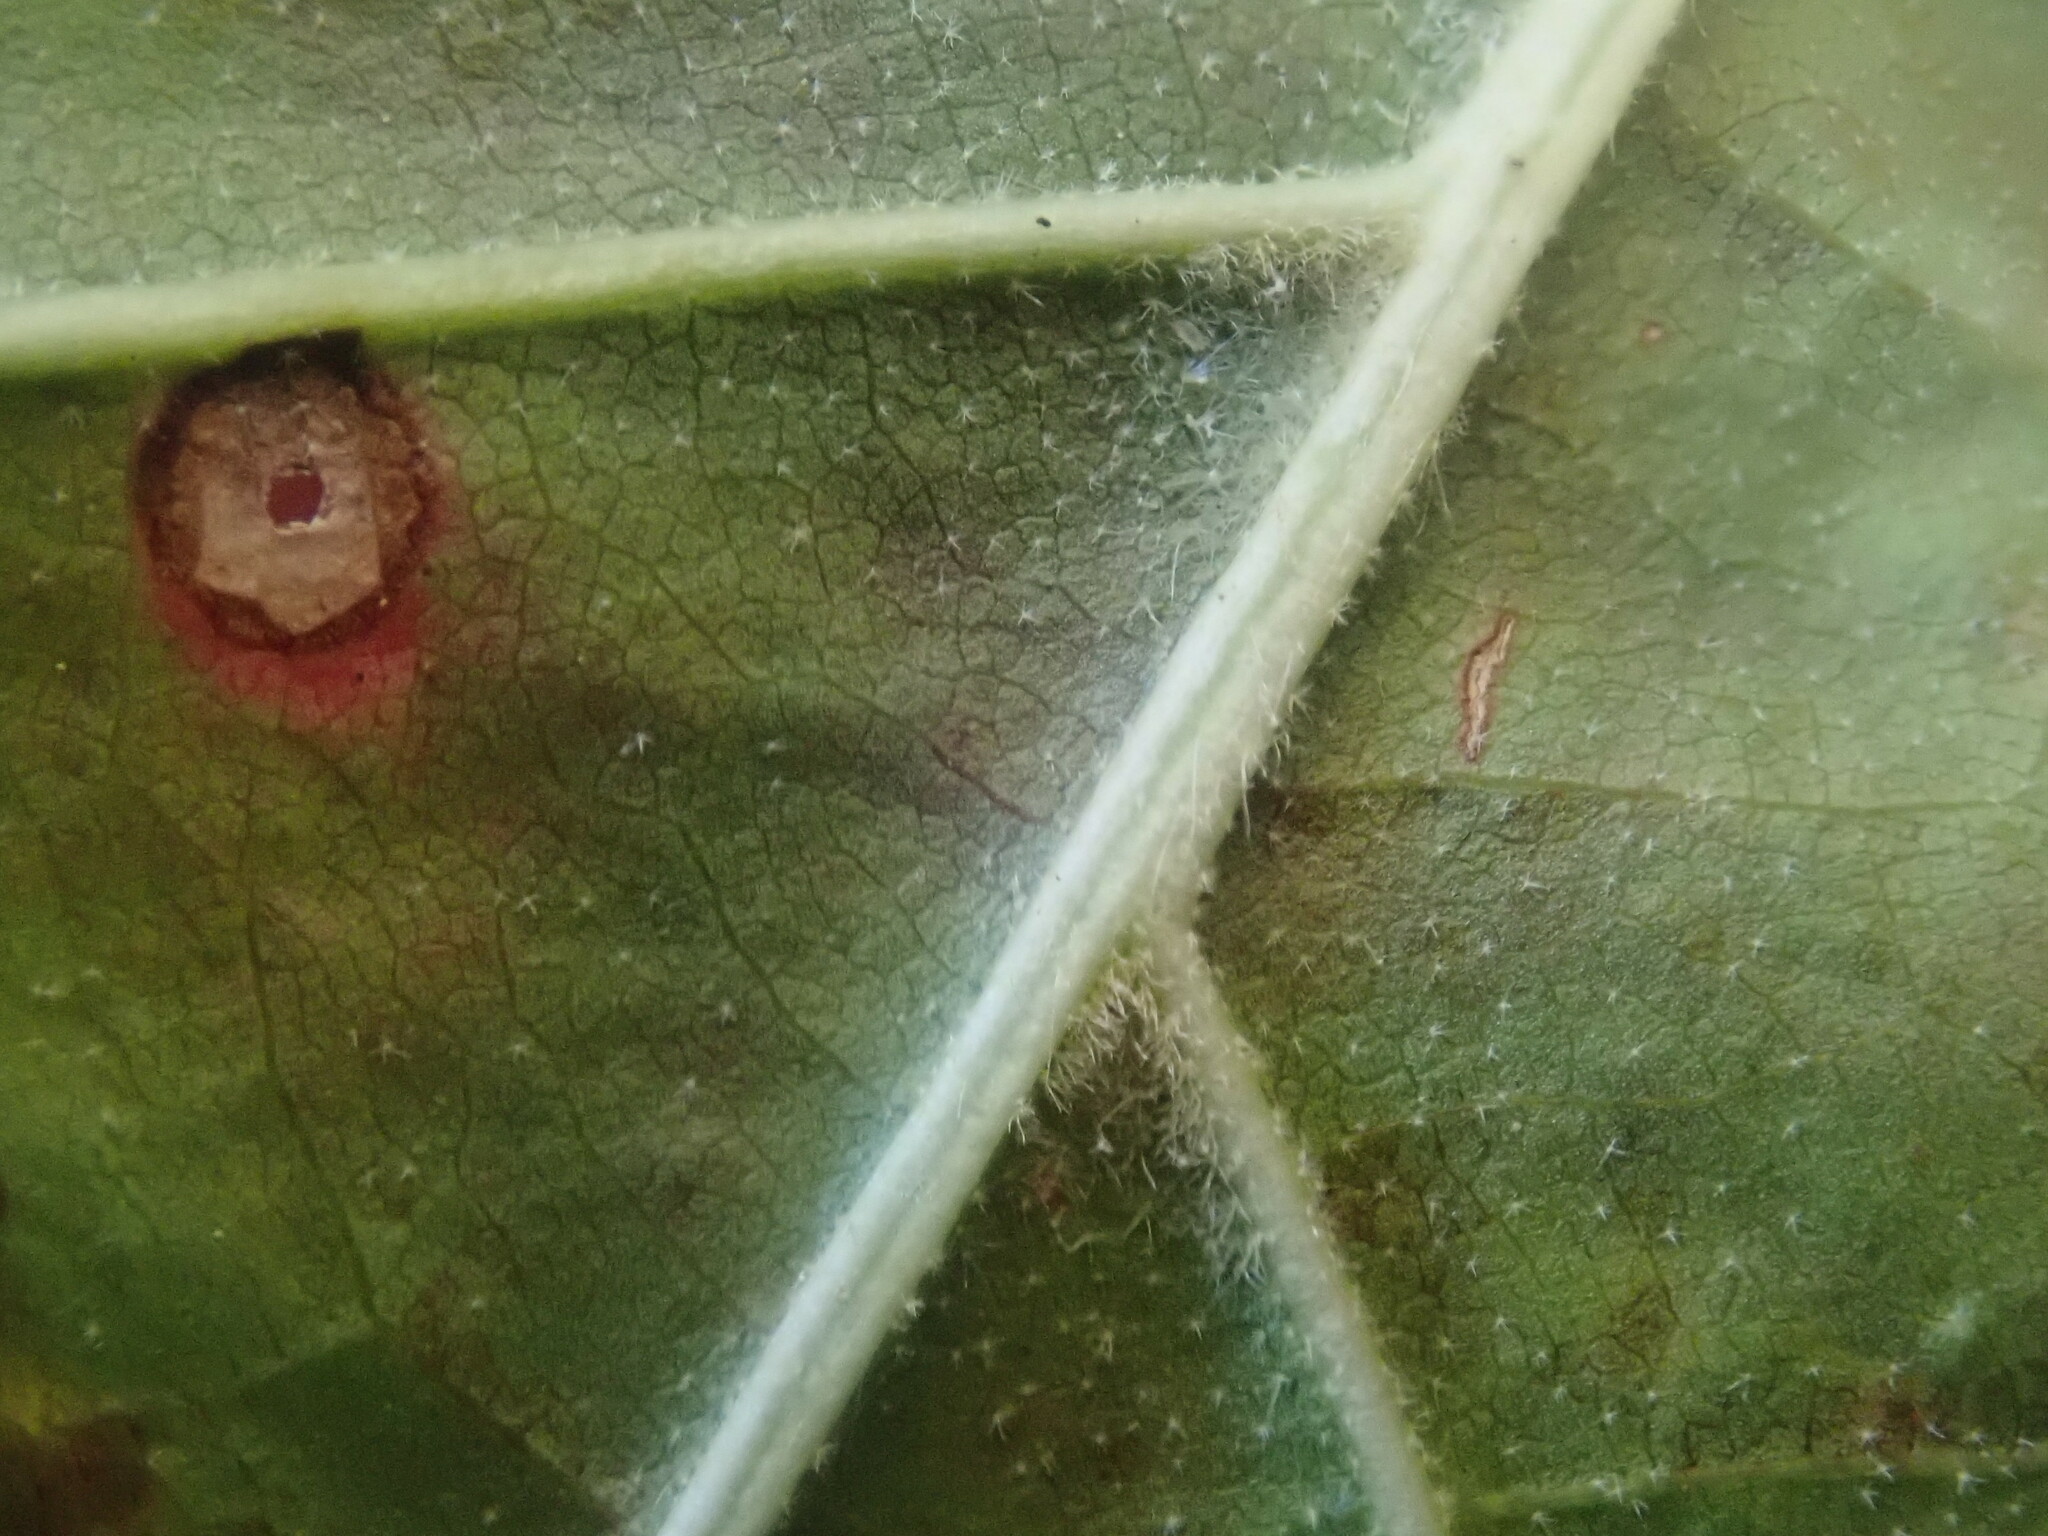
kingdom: Plantae
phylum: Tracheophyta
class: Magnoliopsida
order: Fagales
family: Fagaceae
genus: Quercus
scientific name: Quercus velutina
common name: Black oak
